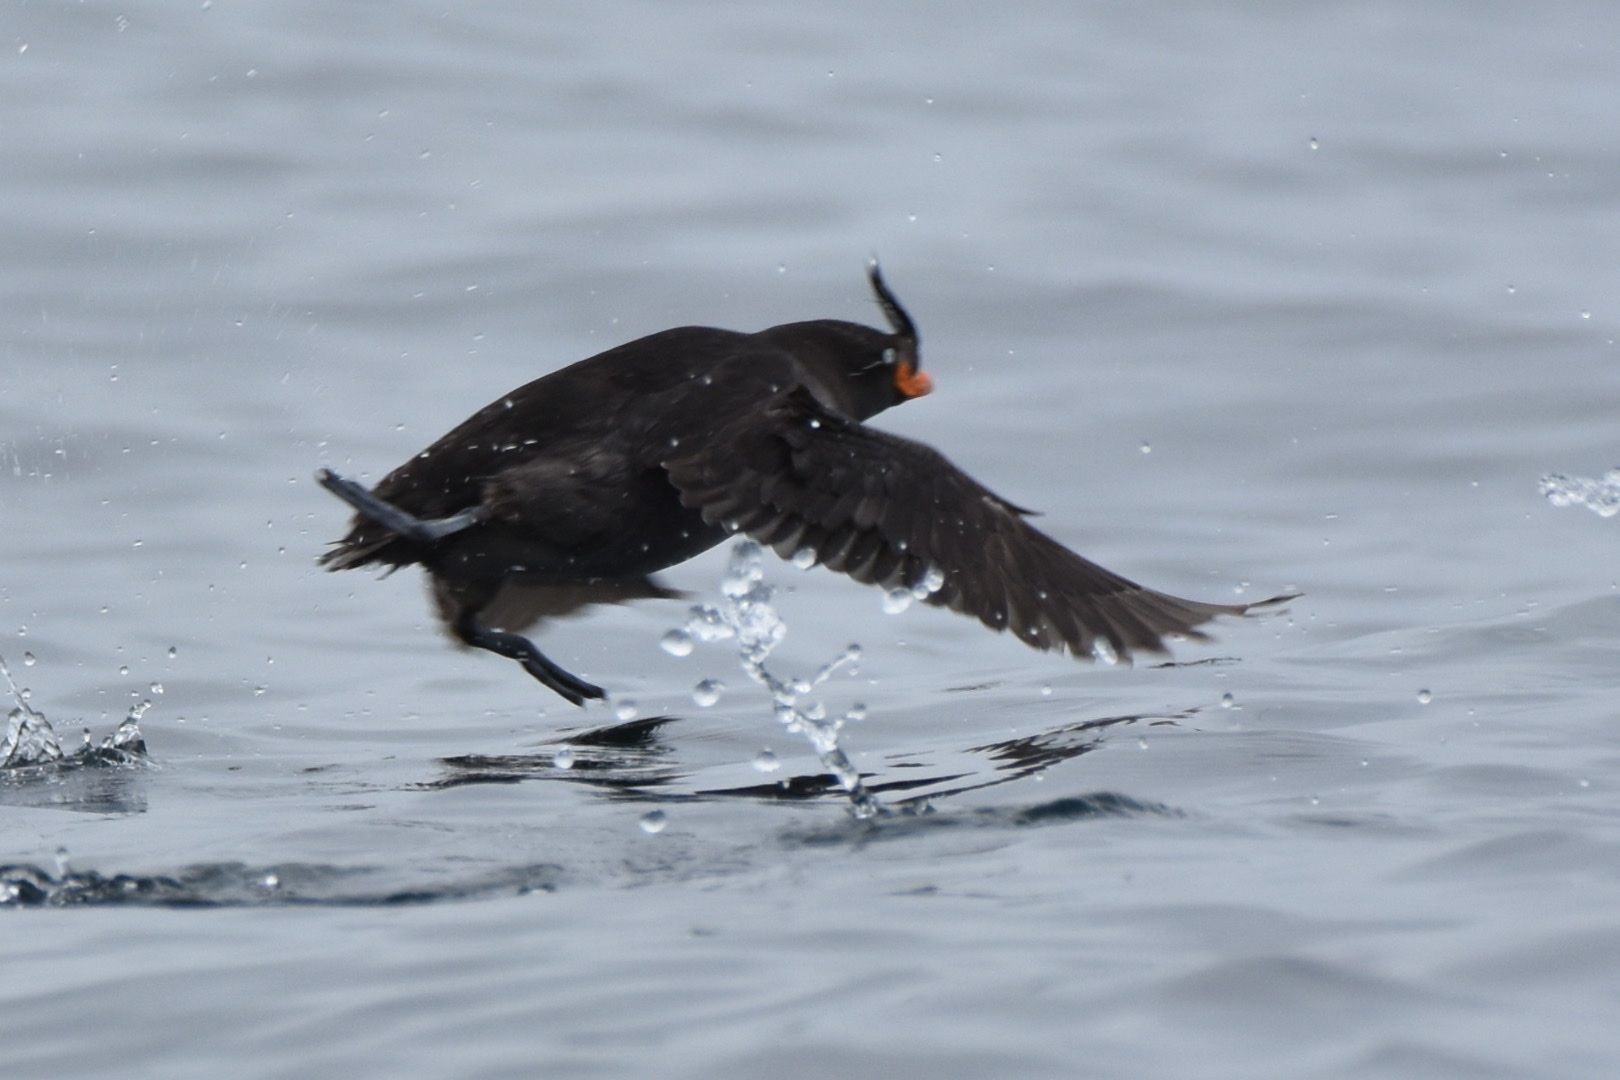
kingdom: Animalia
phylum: Chordata
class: Aves
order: Charadriiformes
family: Alcidae
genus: Aethia
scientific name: Aethia cristatella
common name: Crested auklet
